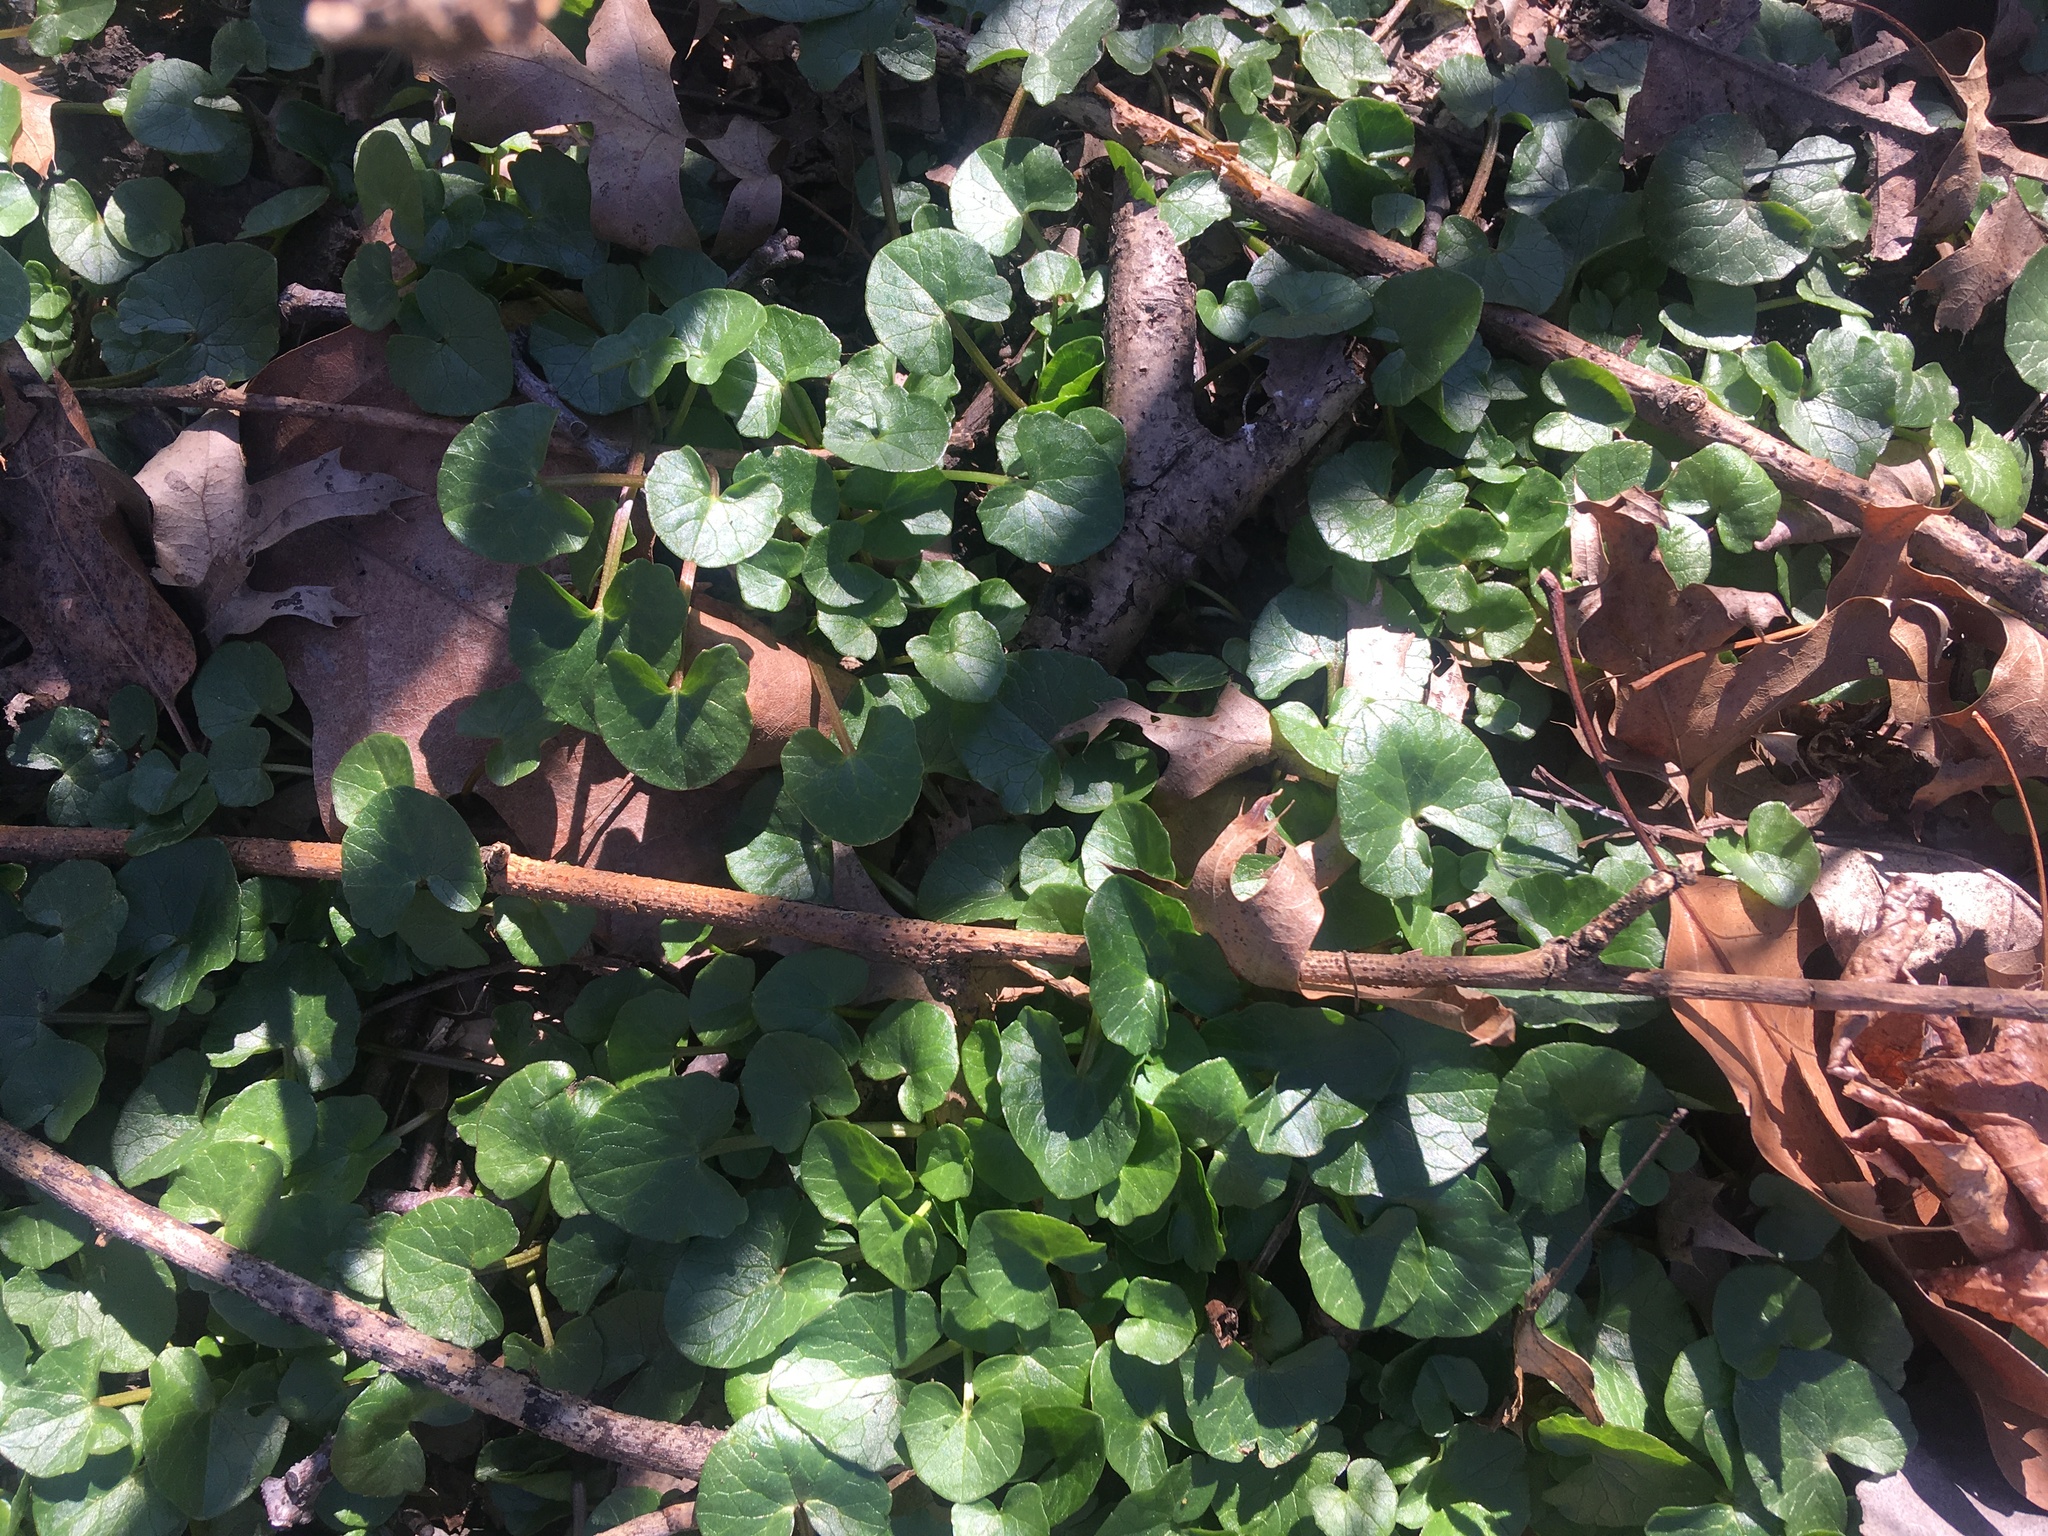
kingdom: Plantae
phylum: Tracheophyta
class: Magnoliopsida
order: Ranunculales
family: Ranunculaceae
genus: Ficaria
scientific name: Ficaria verna
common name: Lesser celandine
